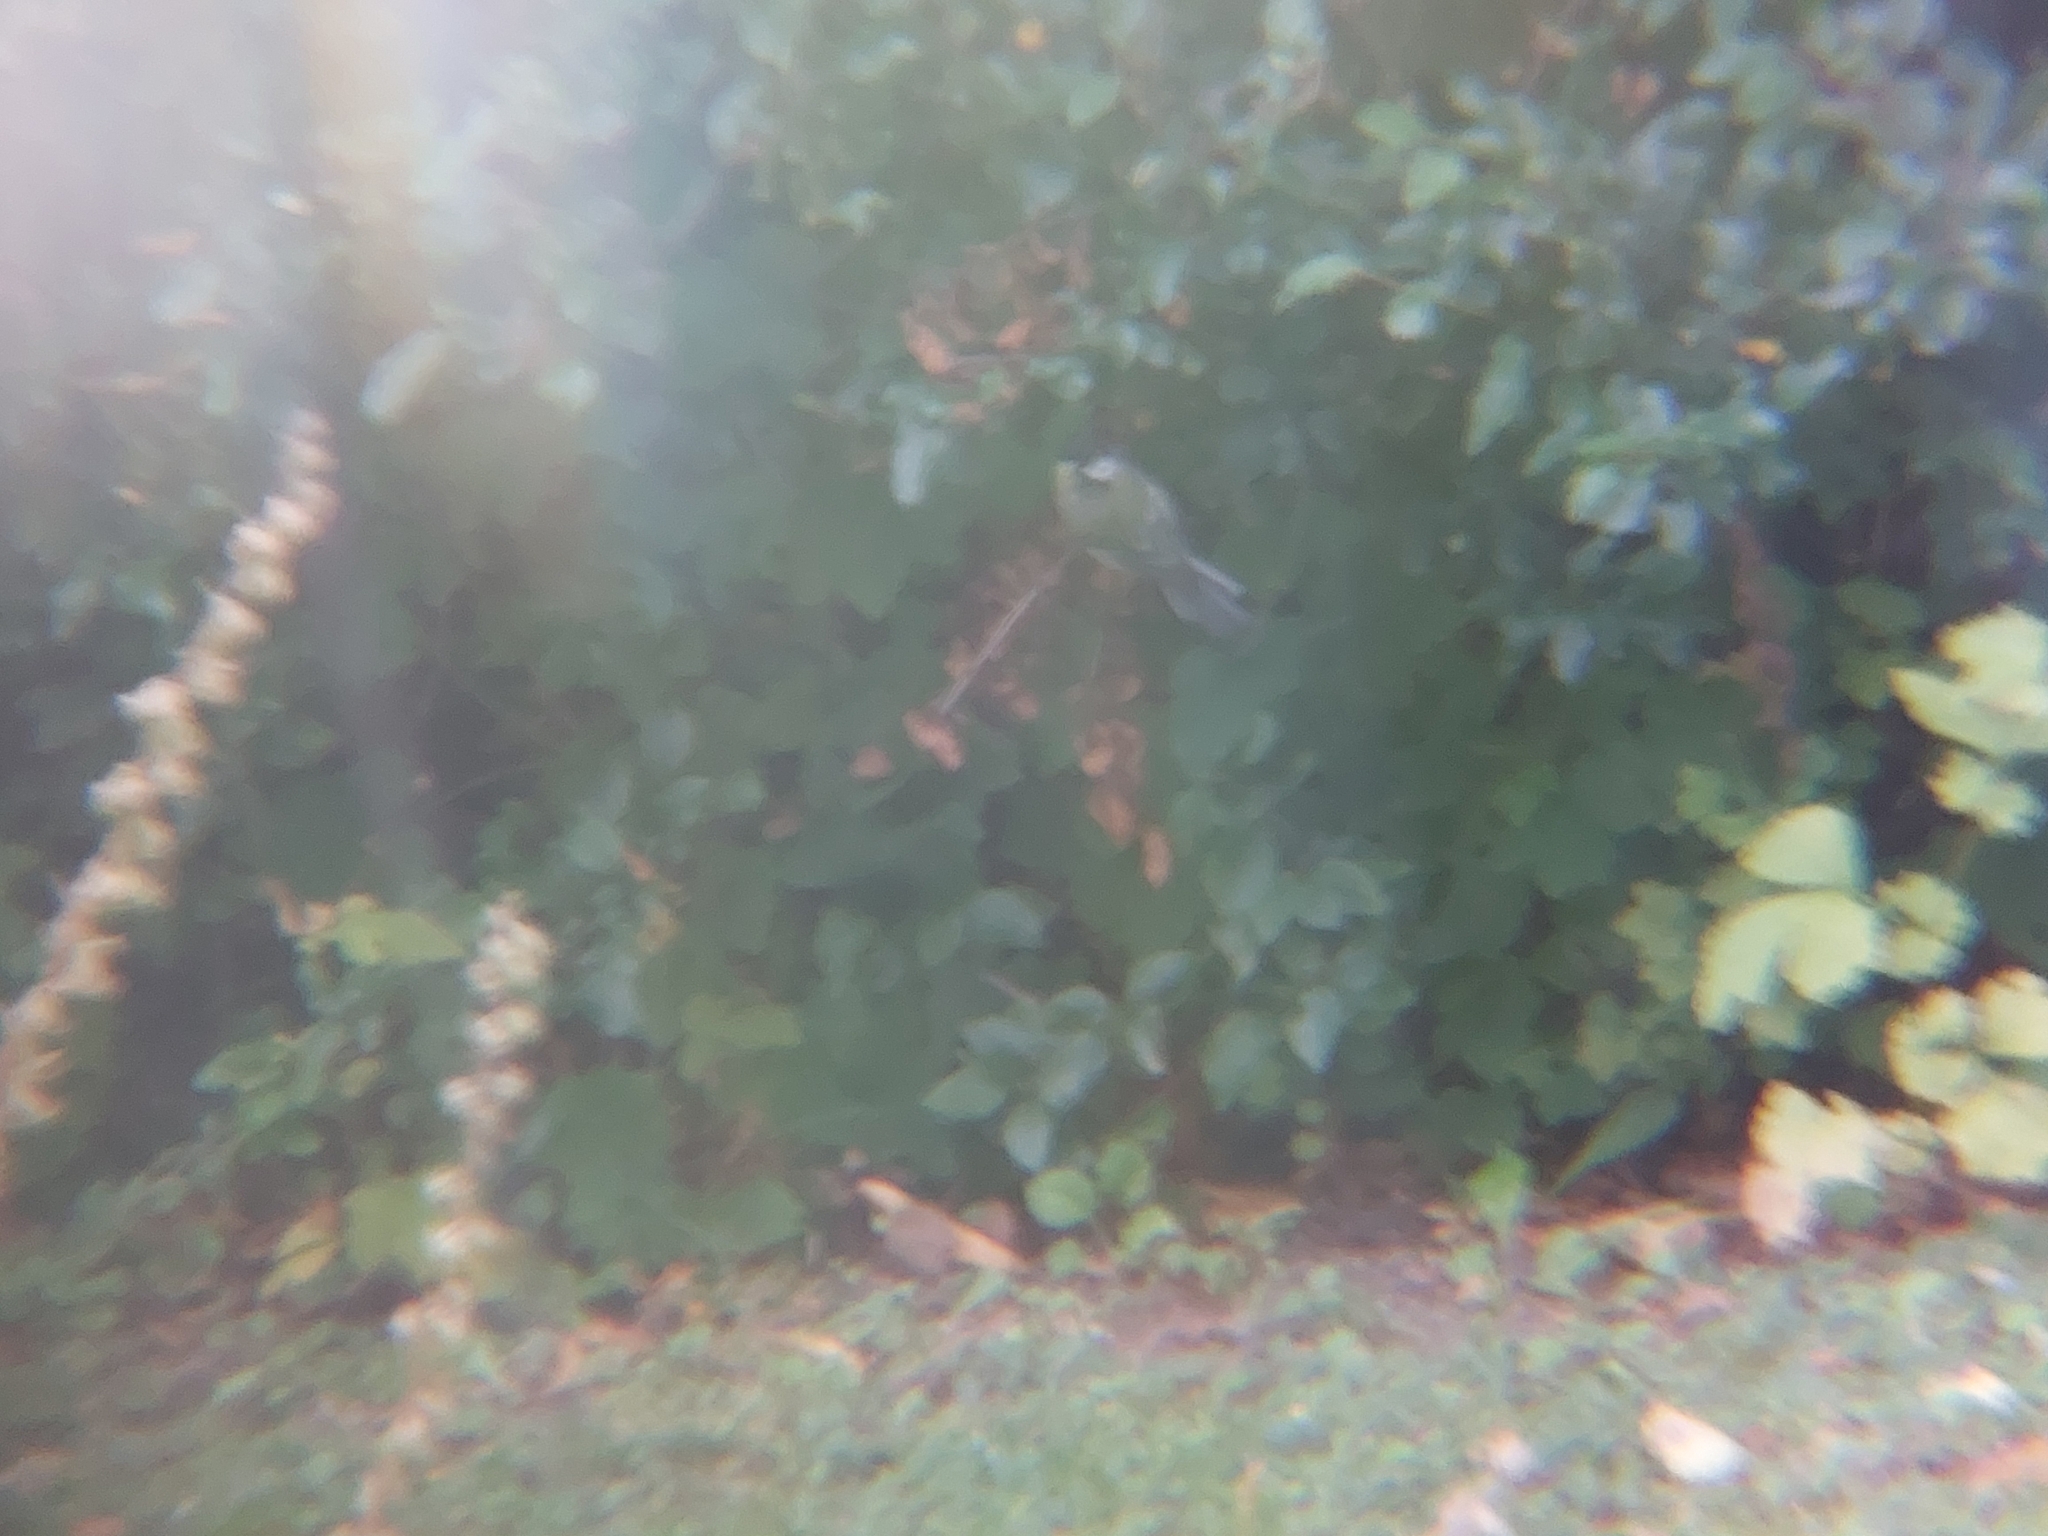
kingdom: Animalia
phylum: Chordata
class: Aves
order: Passeriformes
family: Paridae
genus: Parus
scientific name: Parus major
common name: Great tit
